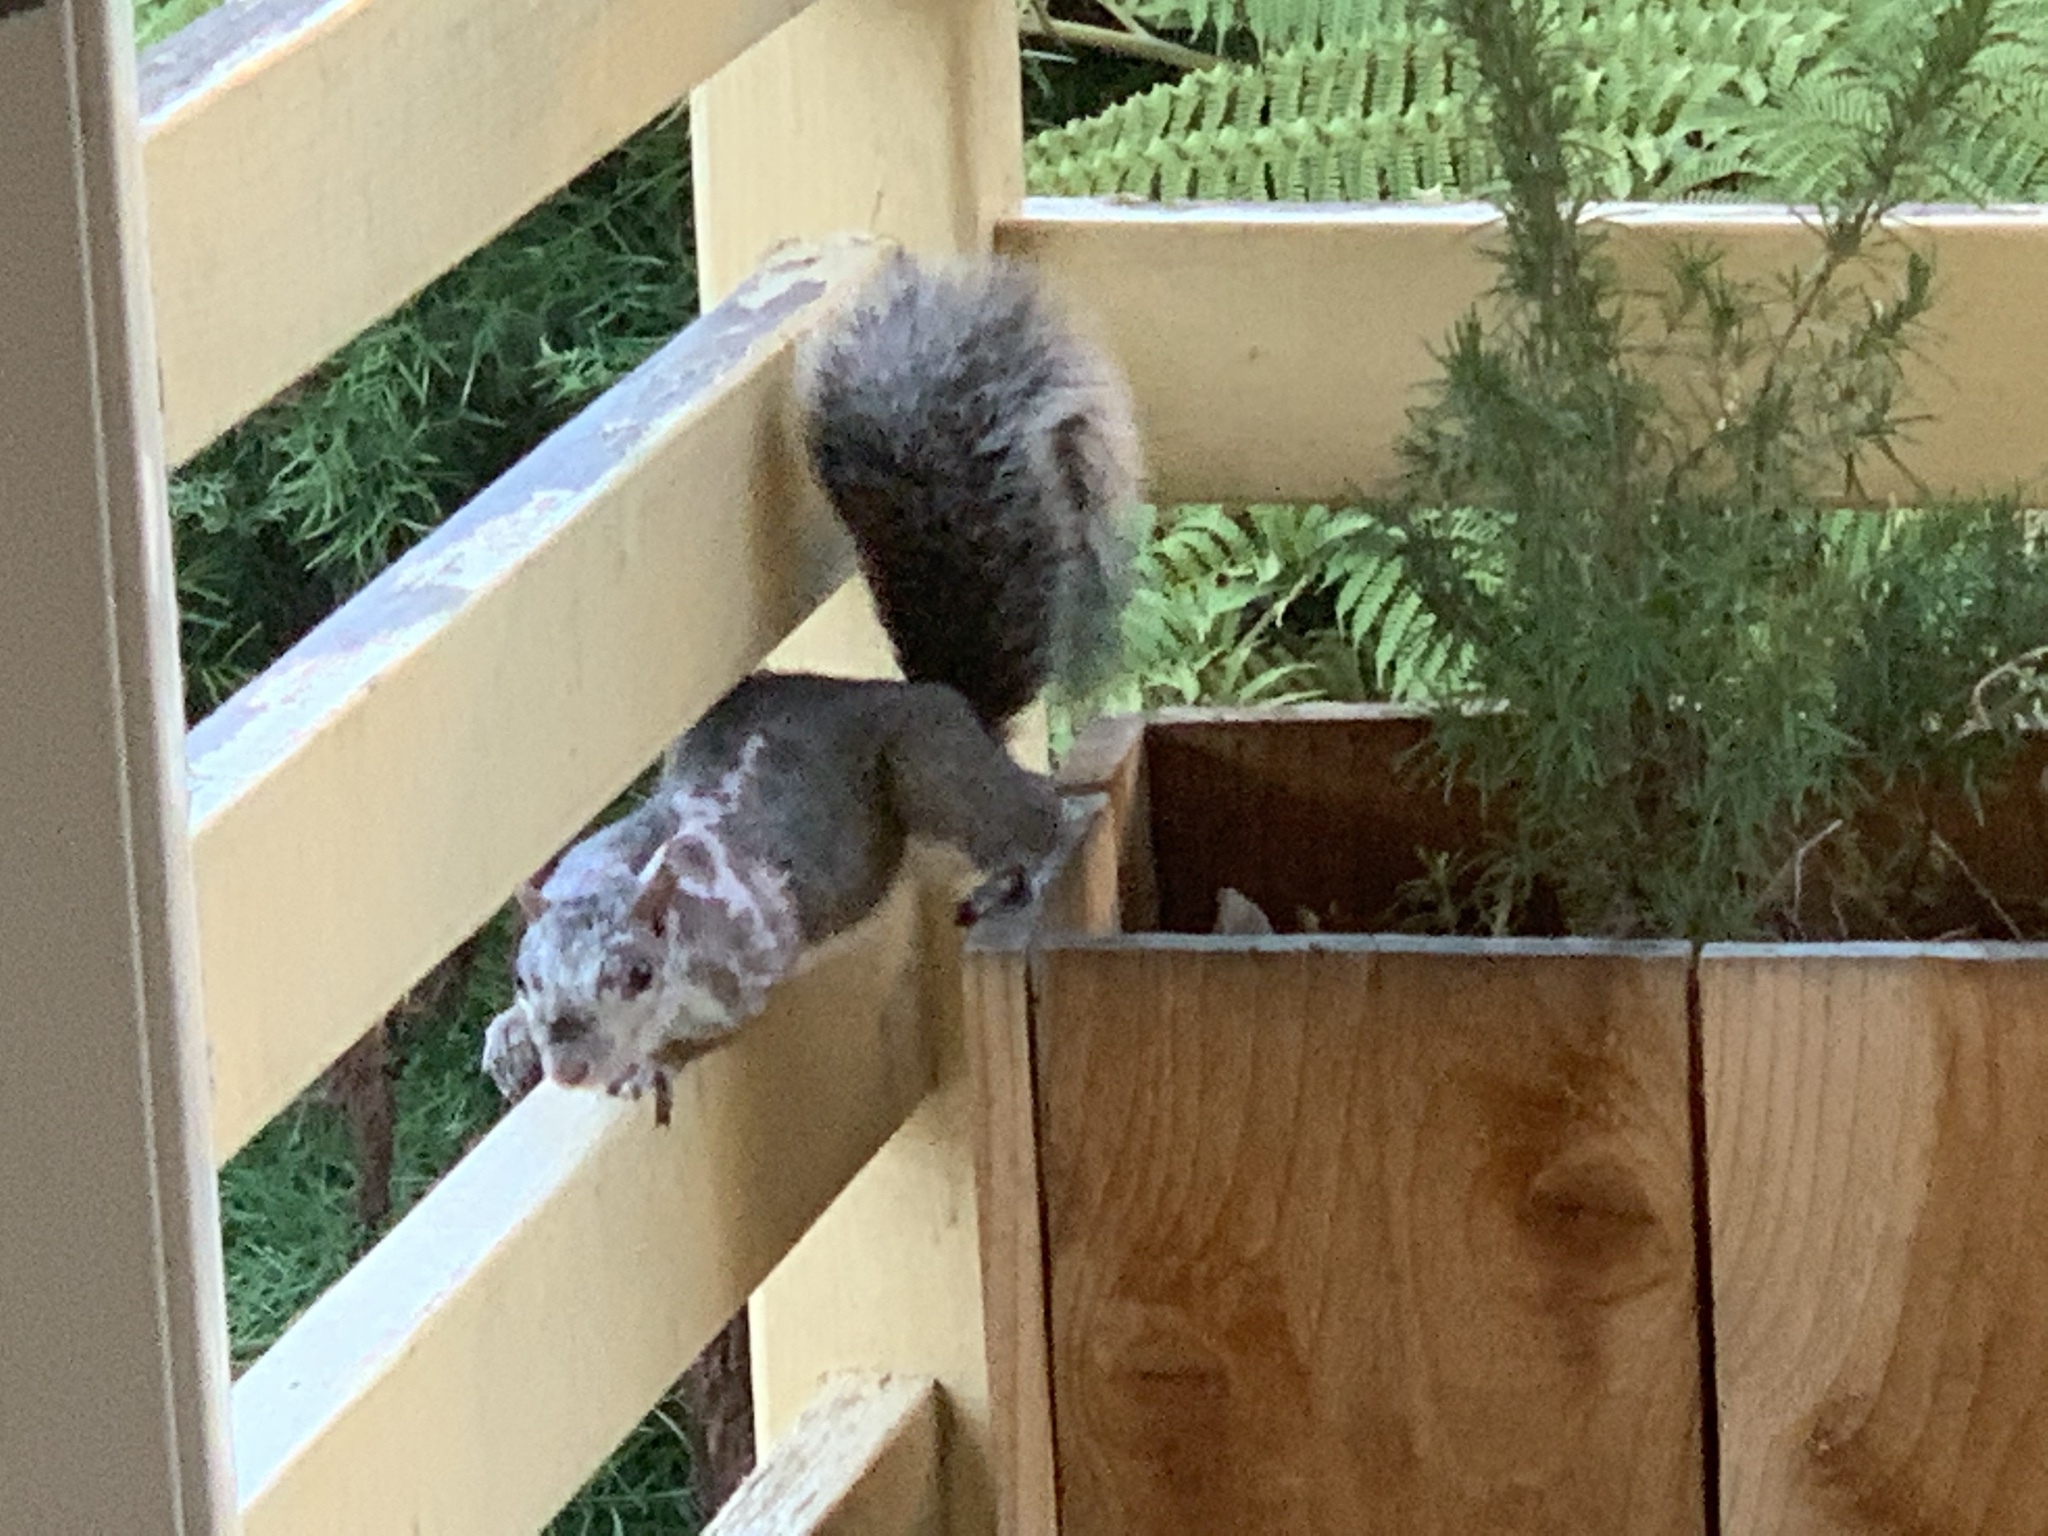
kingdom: Animalia
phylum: Chordata
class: Mammalia
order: Rodentia
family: Sciuridae
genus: Sciurus
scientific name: Sciurus carolinensis
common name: Eastern gray squirrel
